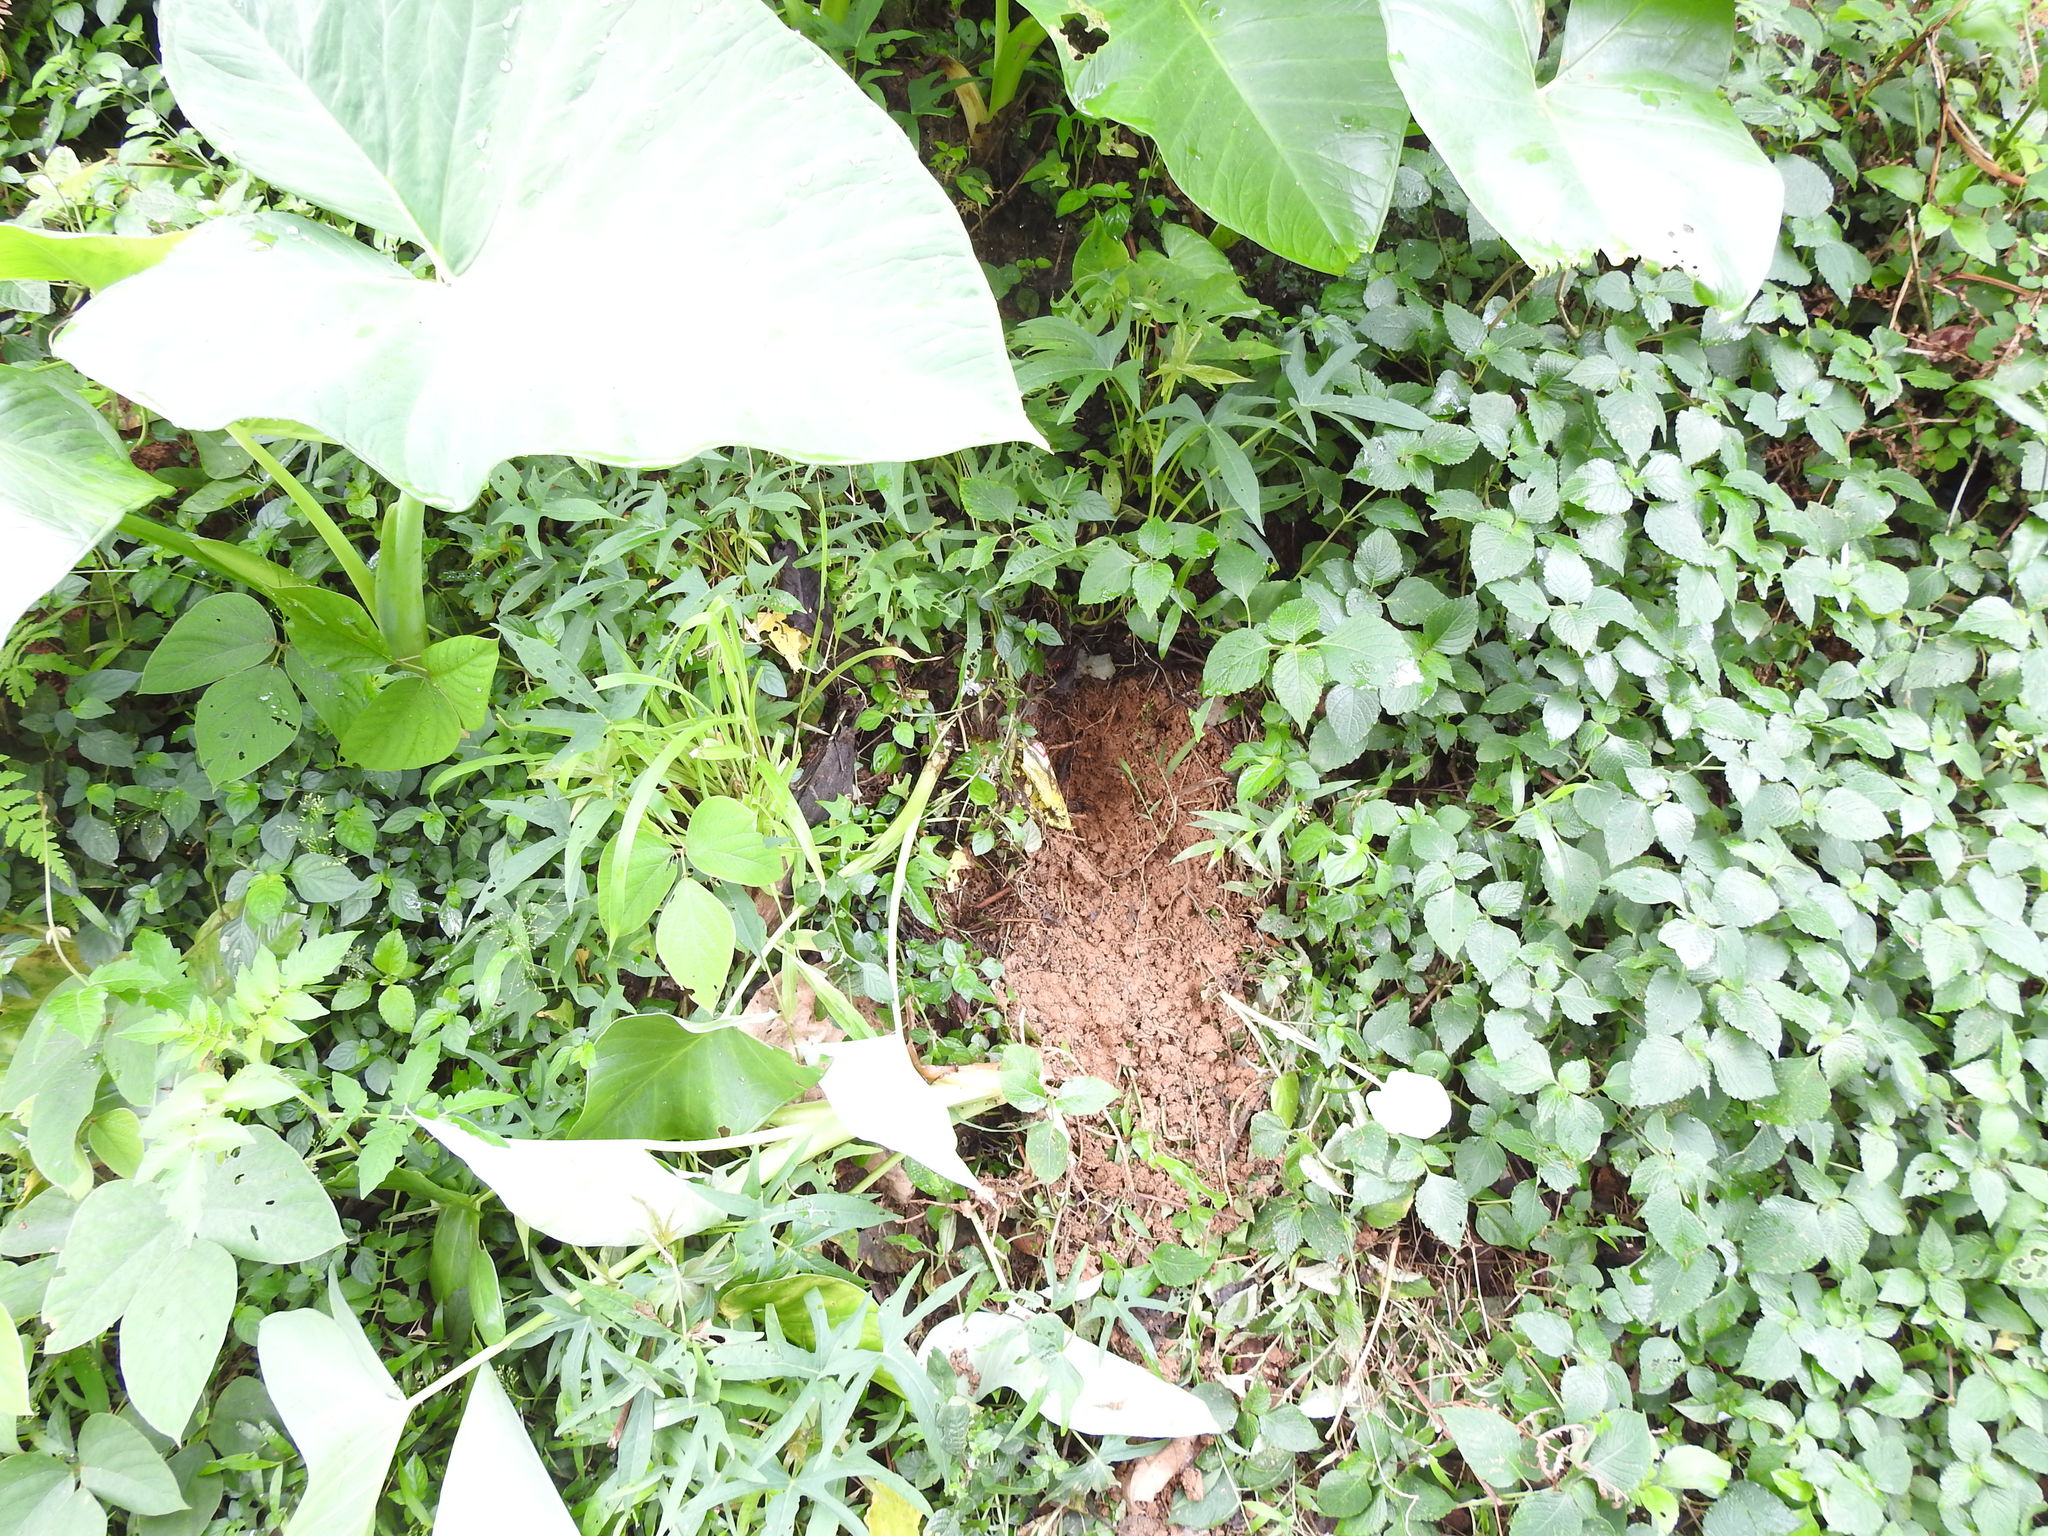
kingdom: Animalia
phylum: Chordata
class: Mammalia
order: Rodentia
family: Hystricidae
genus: Hystrix
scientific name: Hystrix indica
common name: Indian crested porcupine
